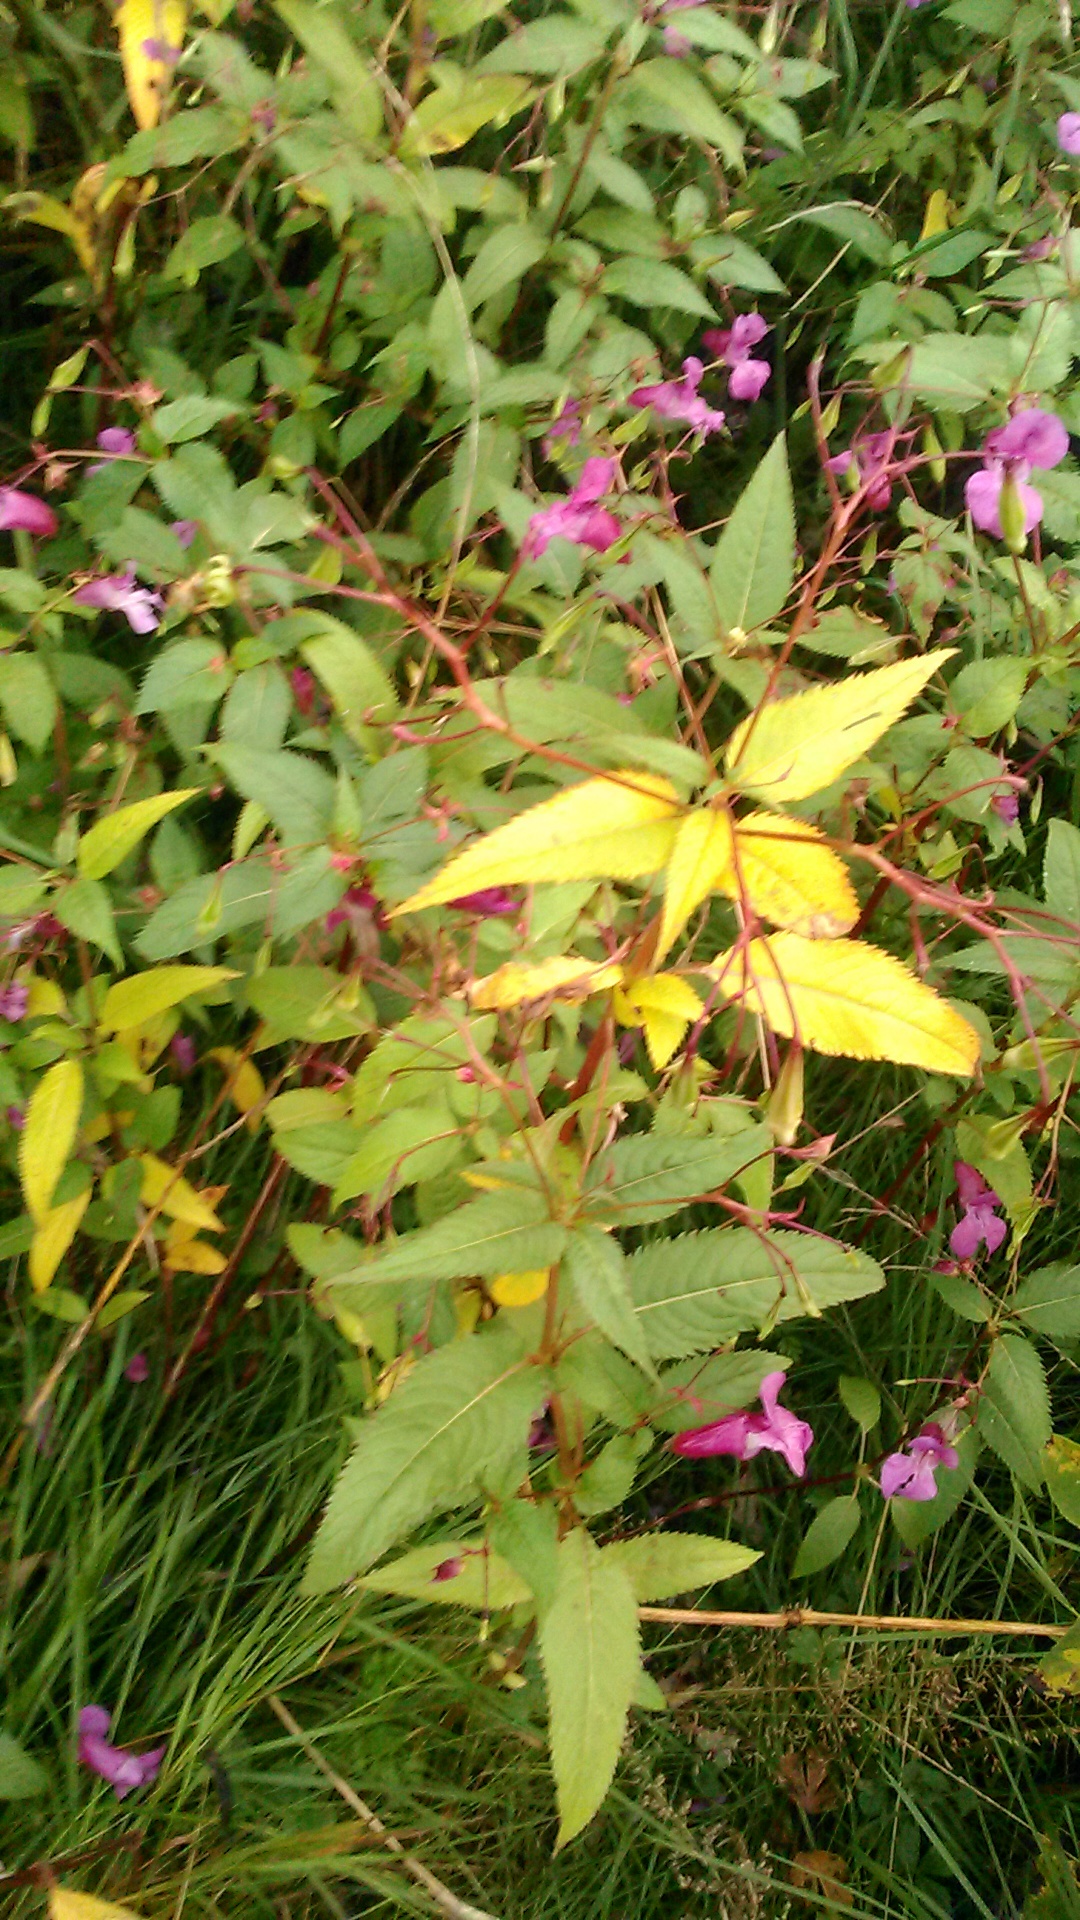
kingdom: Plantae
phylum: Tracheophyta
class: Magnoliopsida
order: Ericales
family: Balsaminaceae
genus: Impatiens
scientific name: Impatiens glandulifera
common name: Himalayan balsam
